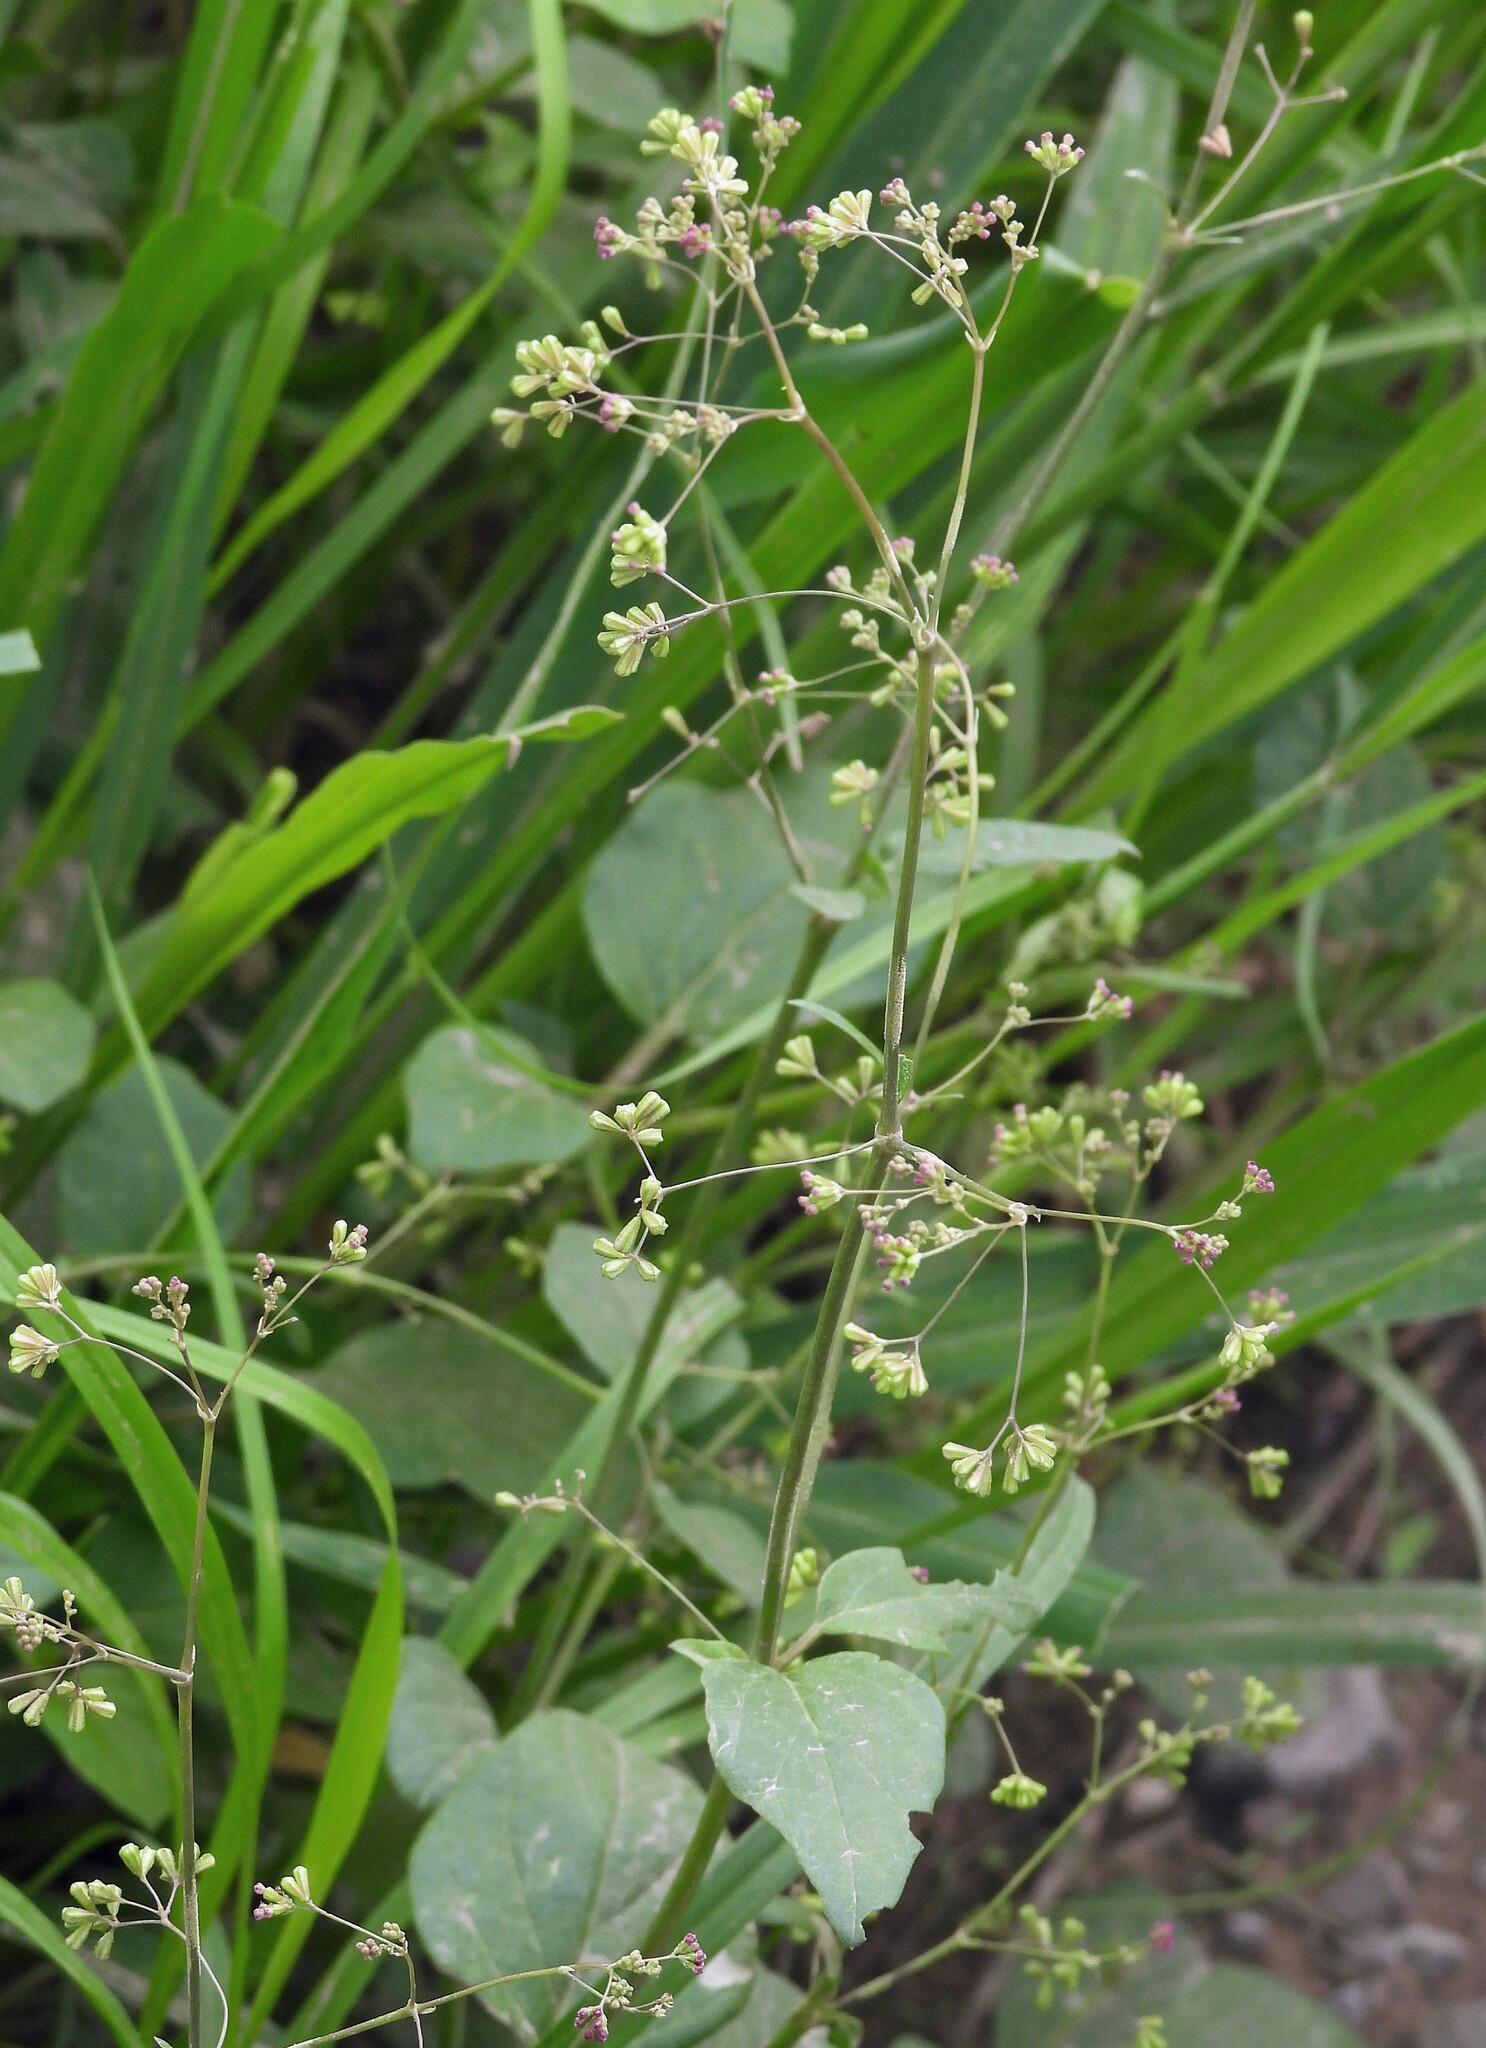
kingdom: Plantae
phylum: Tracheophyta
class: Magnoliopsida
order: Caryophyllales
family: Nyctaginaceae
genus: Boerhavia
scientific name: Boerhavia diffusa
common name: Red spiderling
